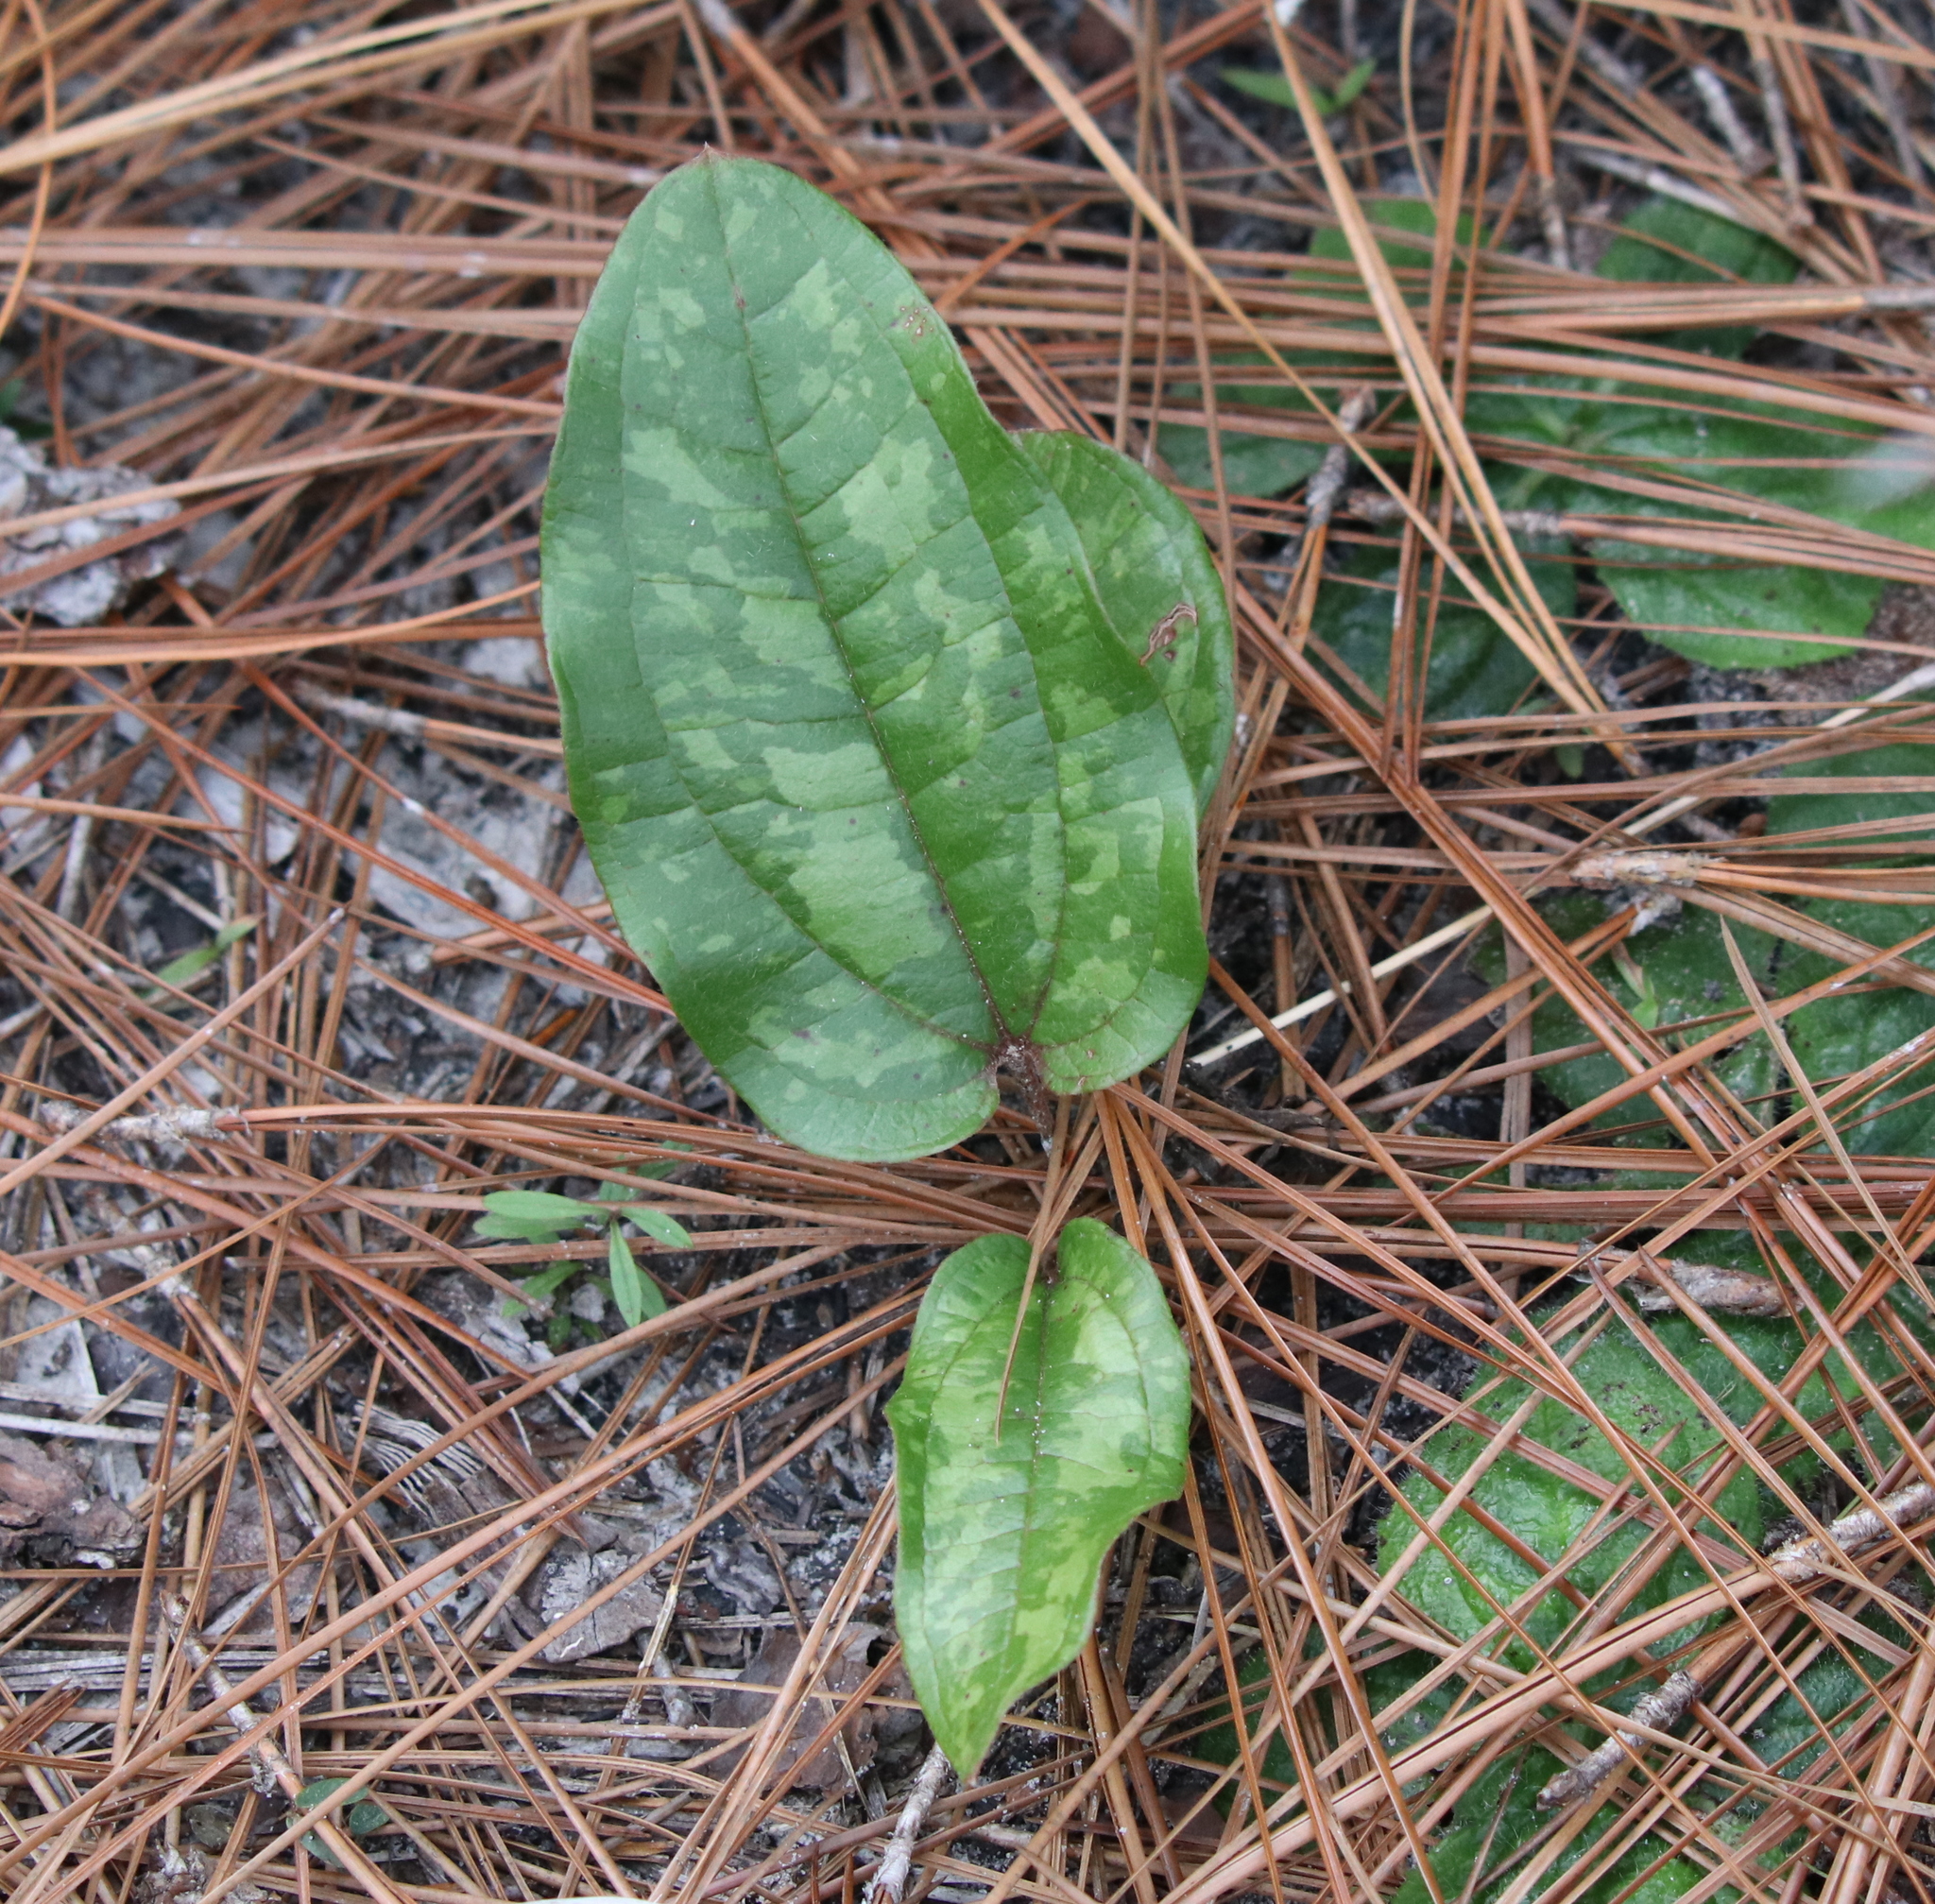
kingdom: Plantae
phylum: Tracheophyta
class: Liliopsida
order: Liliales
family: Smilacaceae
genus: Smilax
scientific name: Smilax pumila
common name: Sarsaparilla-vine
